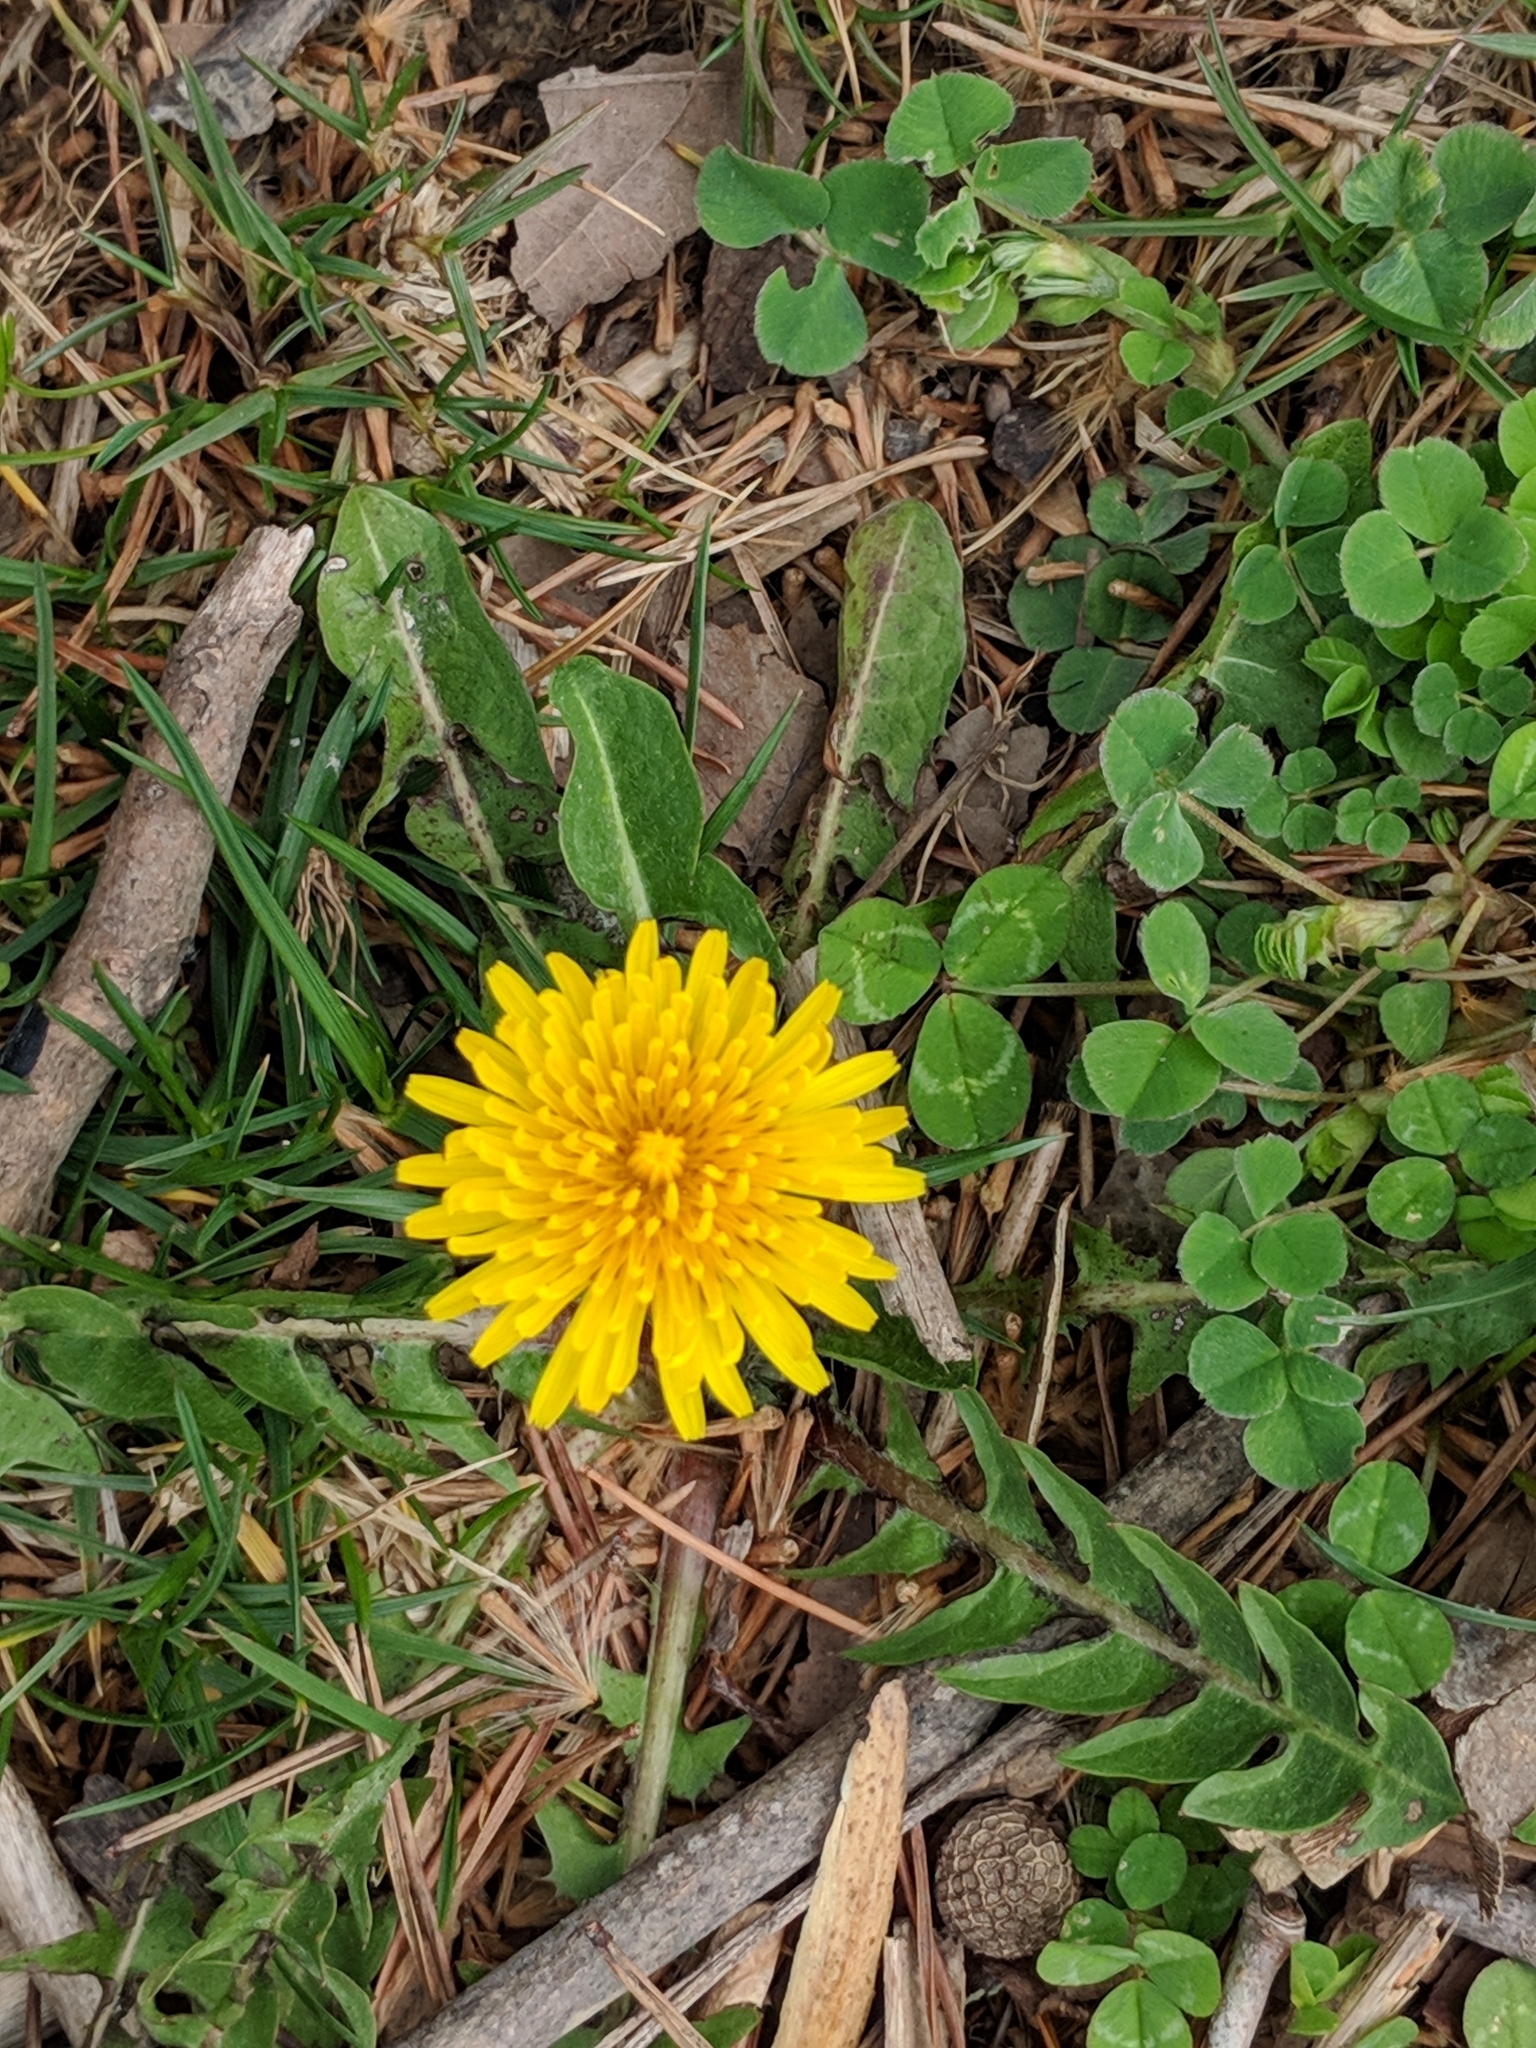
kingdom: Plantae
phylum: Tracheophyta
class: Magnoliopsida
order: Asterales
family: Asteraceae
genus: Taraxacum
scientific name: Taraxacum officinale
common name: Common dandelion
